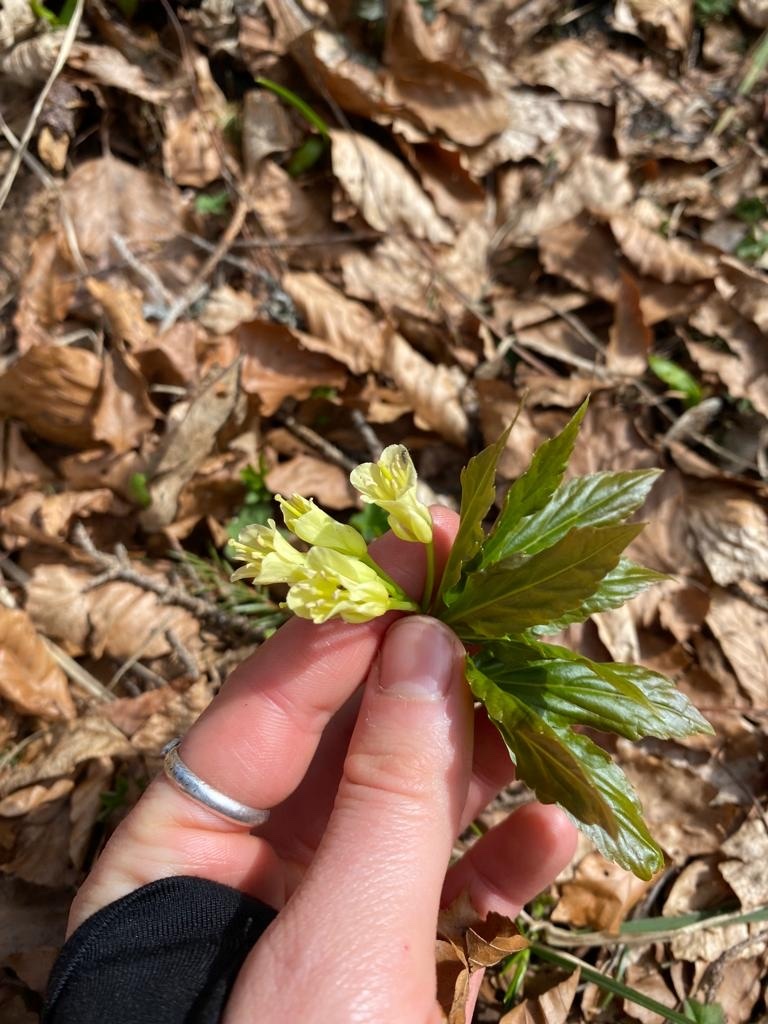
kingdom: Plantae
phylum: Tracheophyta
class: Magnoliopsida
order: Brassicales
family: Brassicaceae
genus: Cardamine
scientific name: Cardamine enneaphyllos
